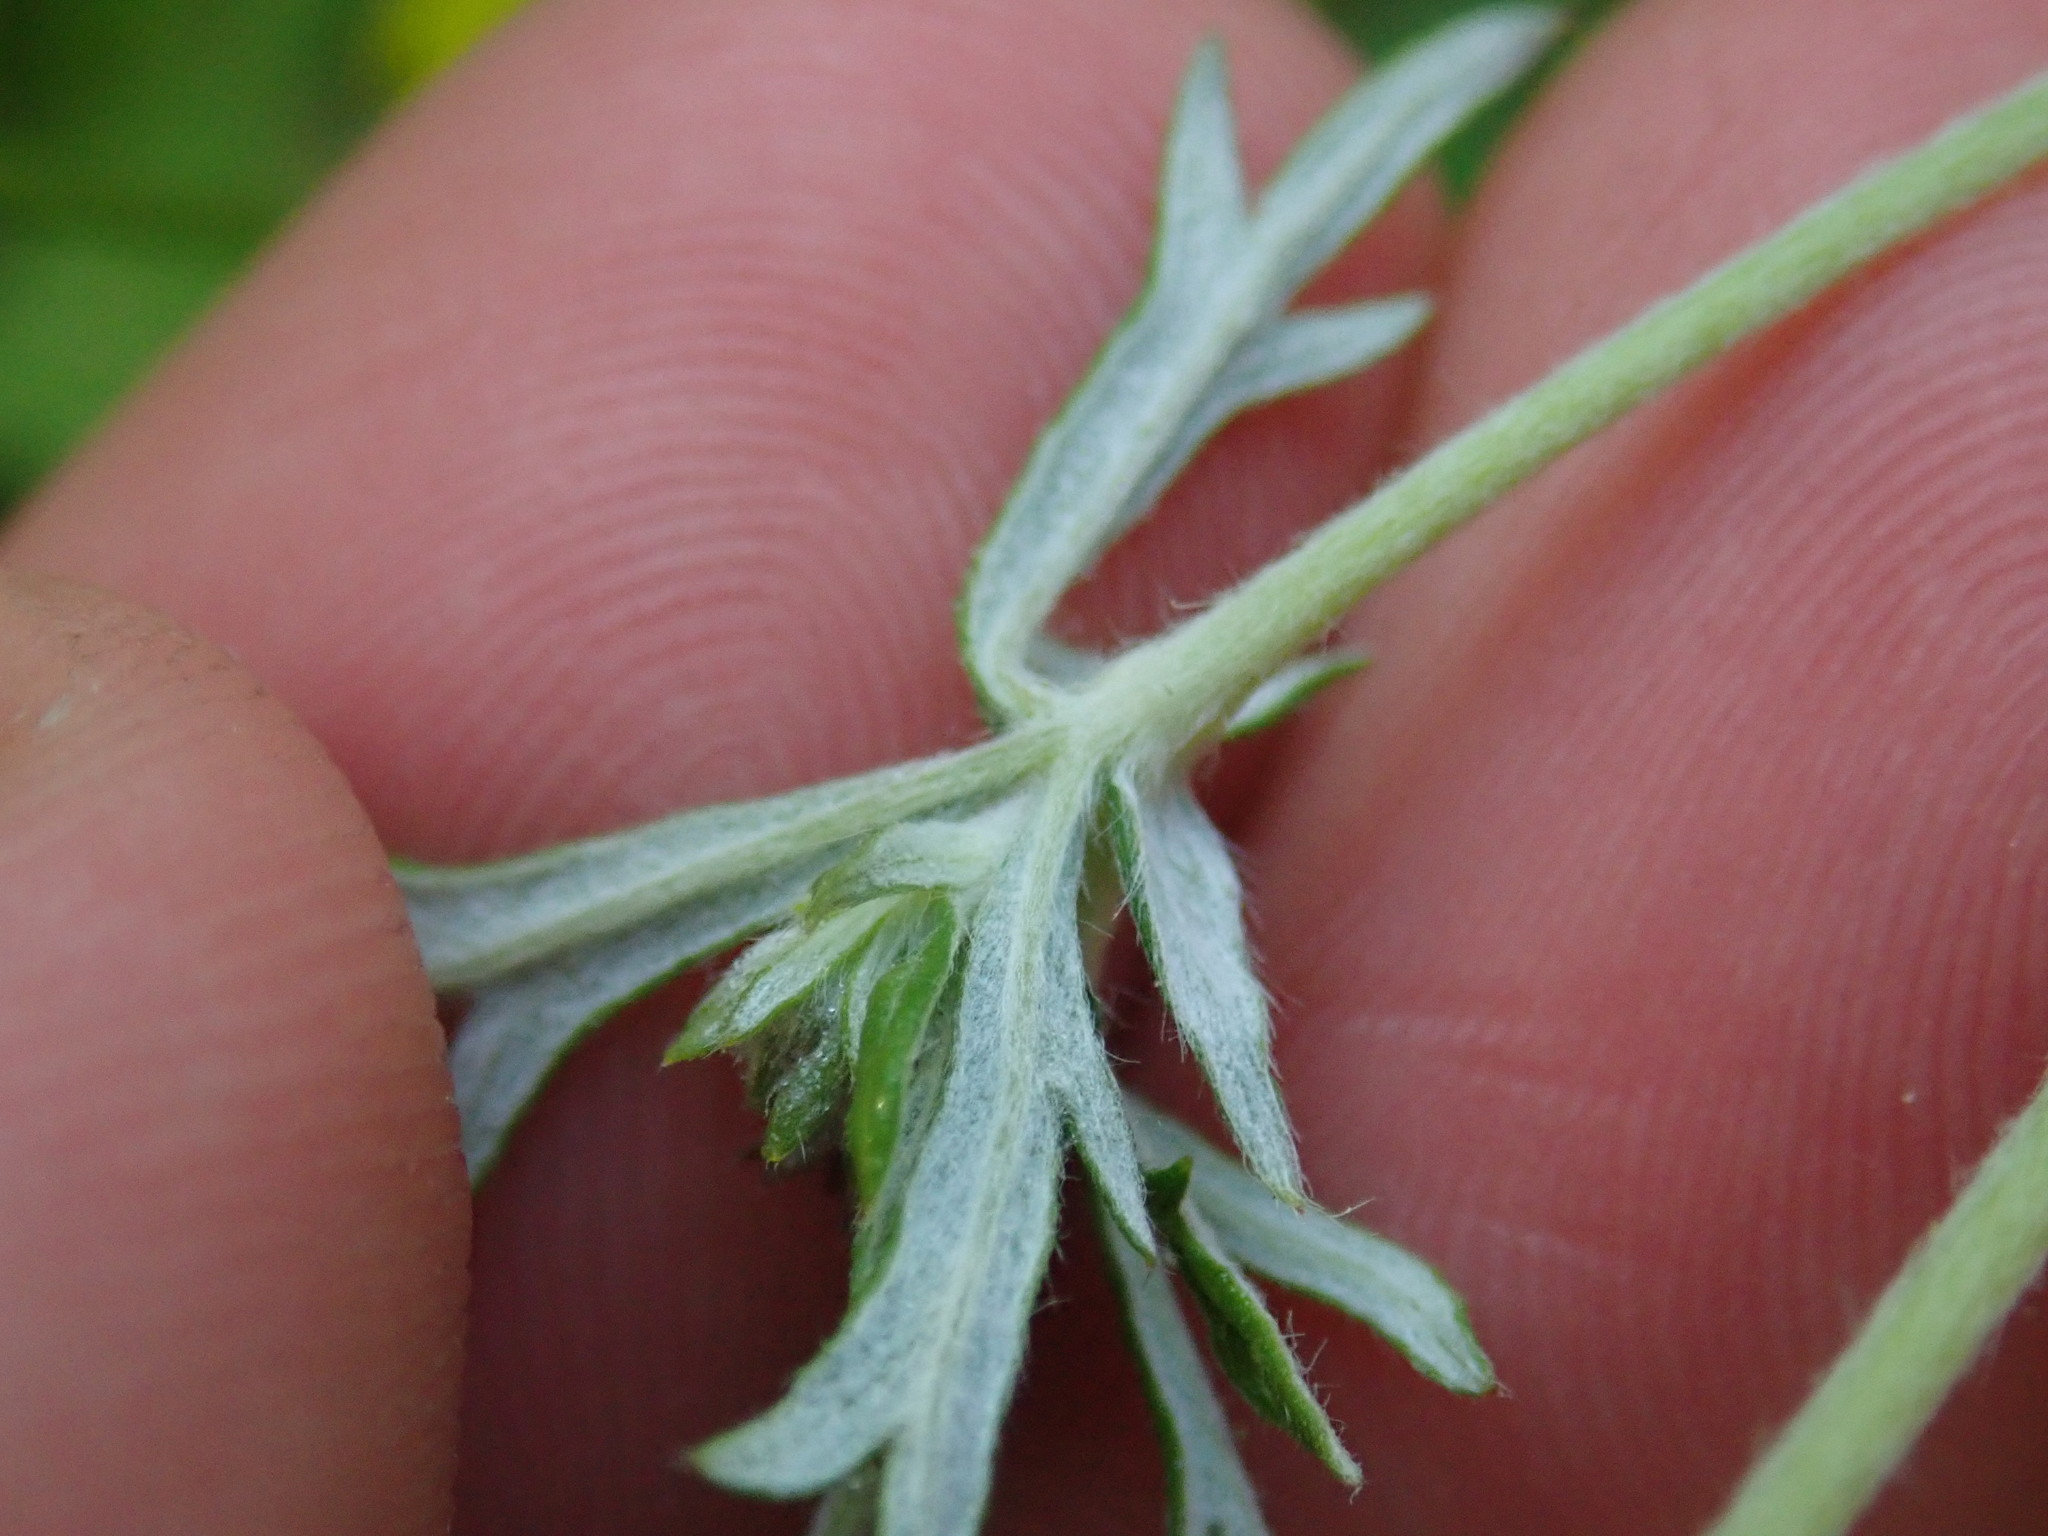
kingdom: Plantae
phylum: Tracheophyta
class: Magnoliopsida
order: Rosales
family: Rosaceae
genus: Potentilla
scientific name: Potentilla argentea
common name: Hoary cinquefoil
